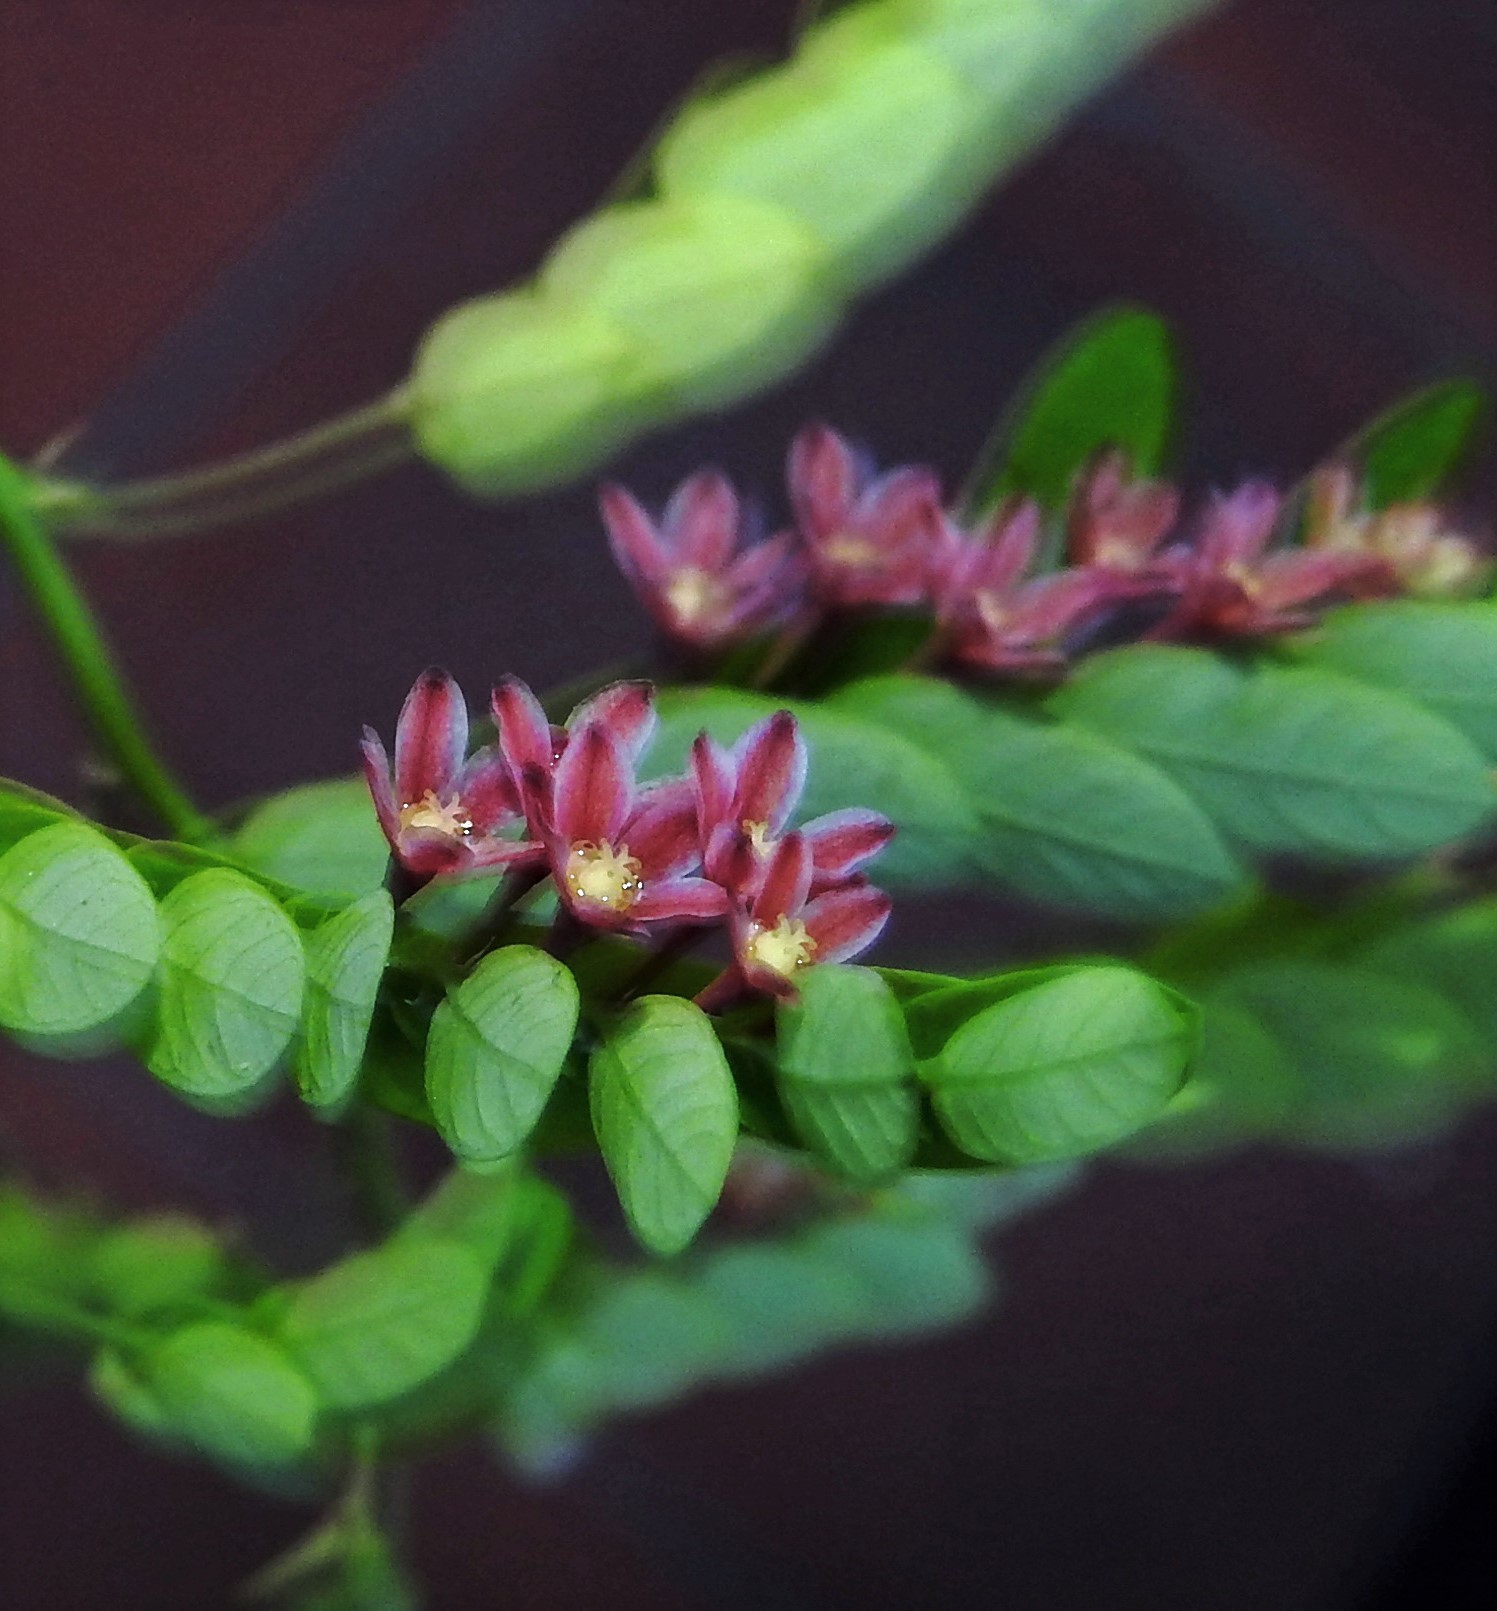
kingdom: Plantae
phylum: Tracheophyta
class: Magnoliopsida
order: Malpighiales
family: Phyllanthaceae
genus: Phyllanthus
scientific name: Phyllanthus niruri
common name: Niruri
